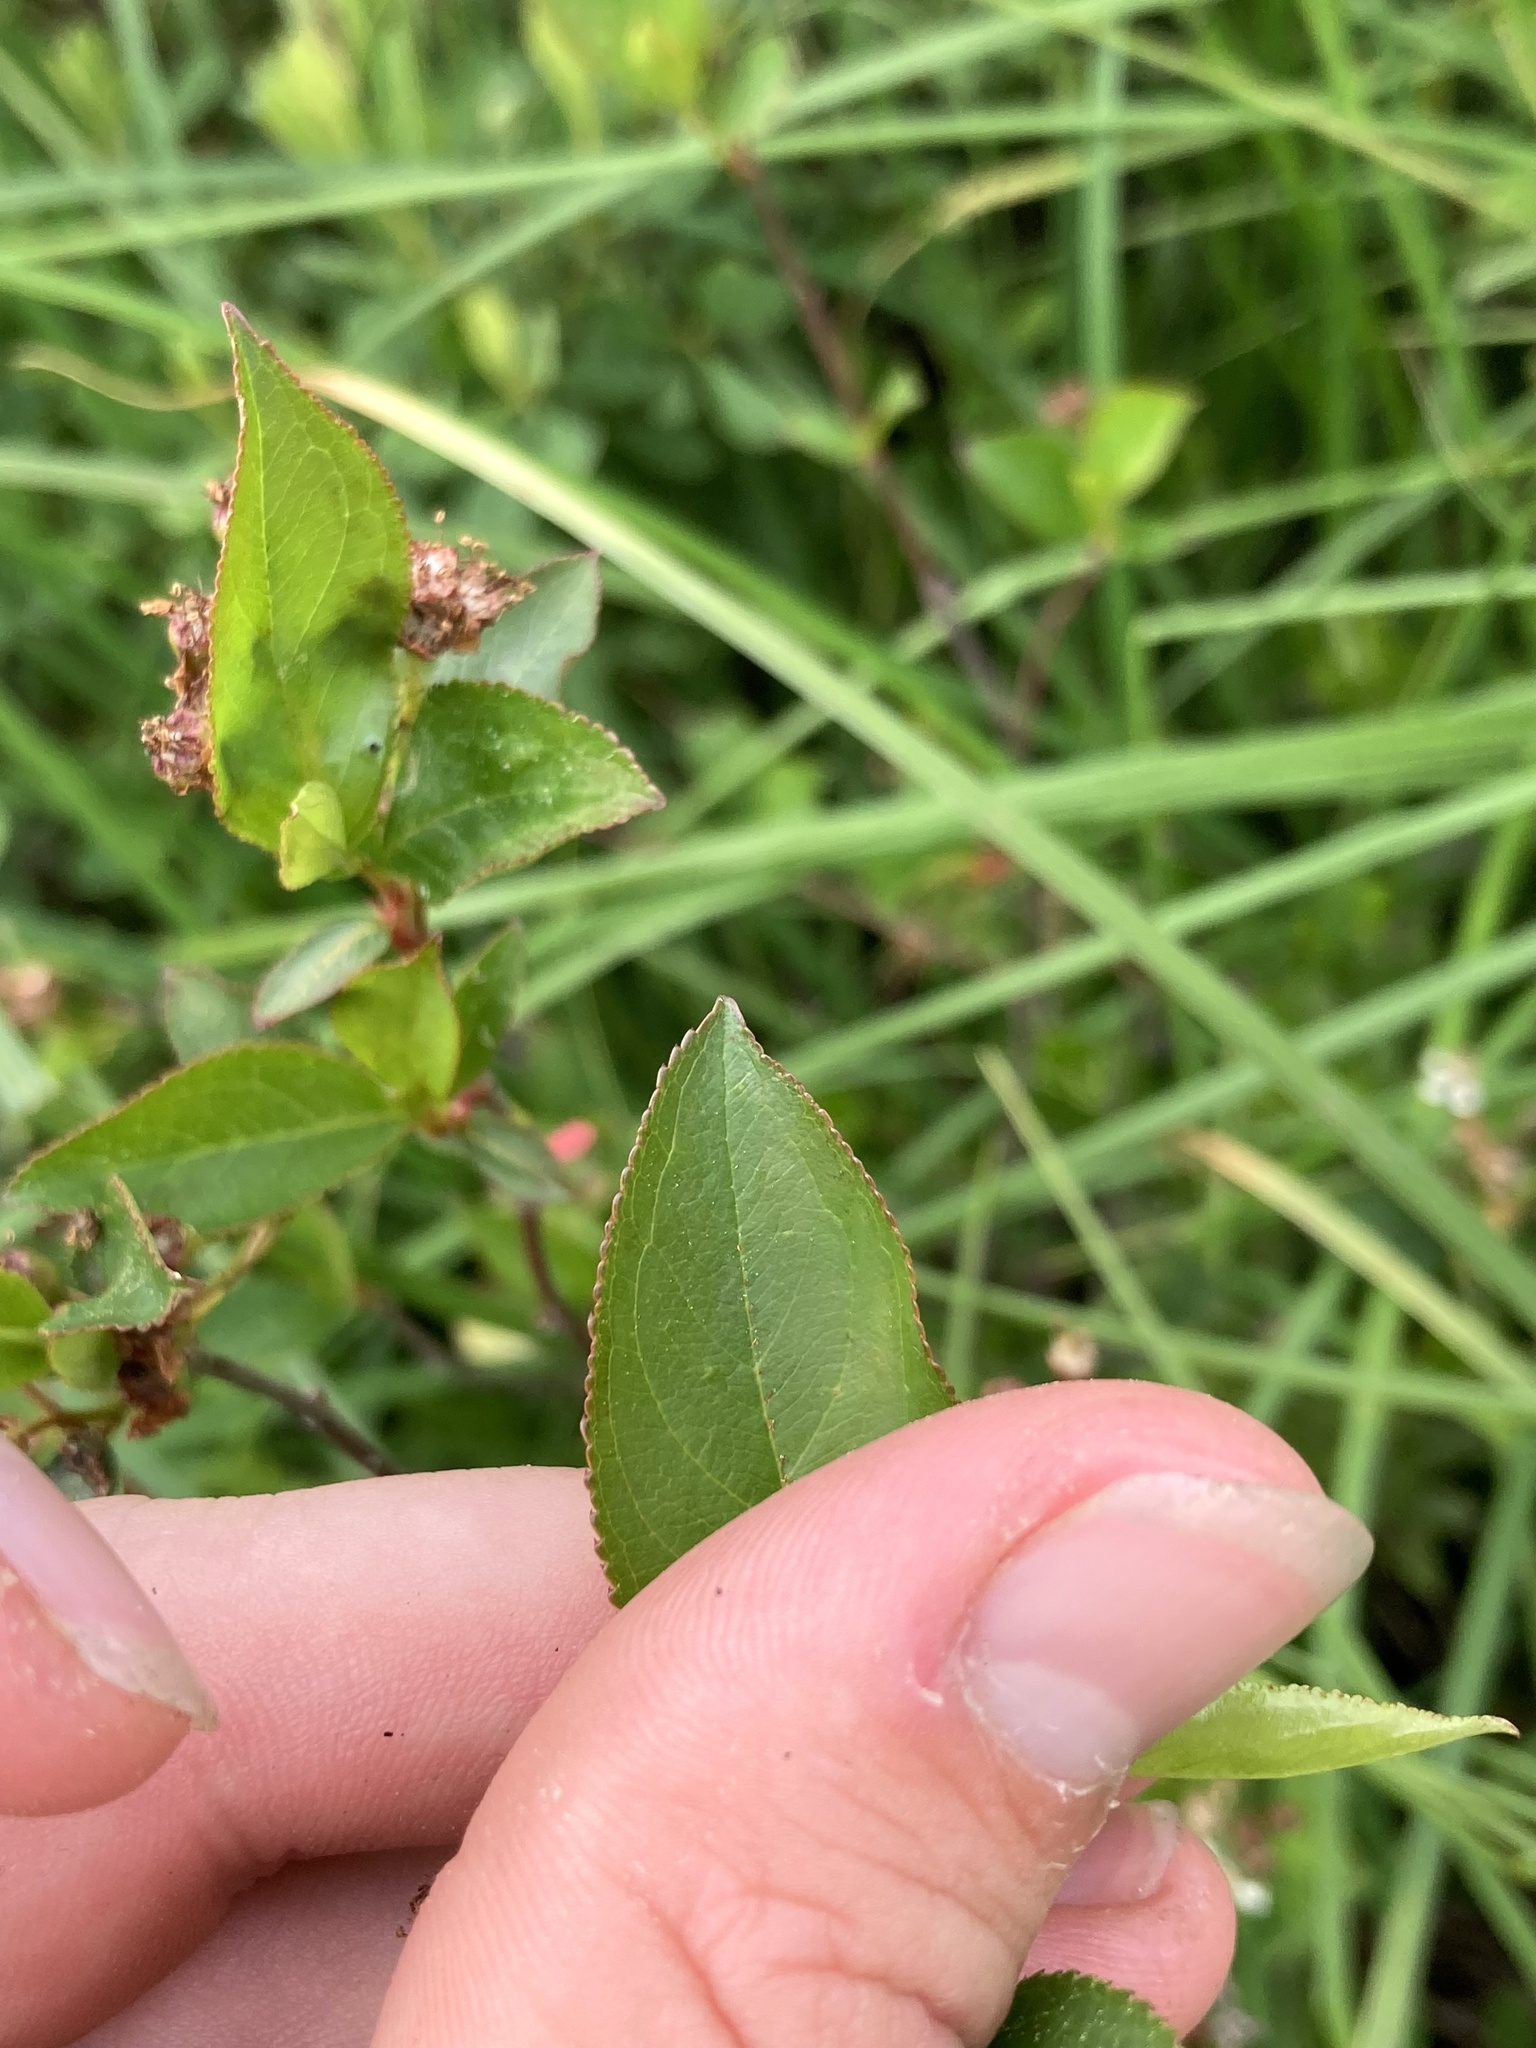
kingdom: Plantae
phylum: Tracheophyta
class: Magnoliopsida
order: Rosales
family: Rosaceae
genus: Aronia
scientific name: Aronia melanocarpa
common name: Black chokeberry
